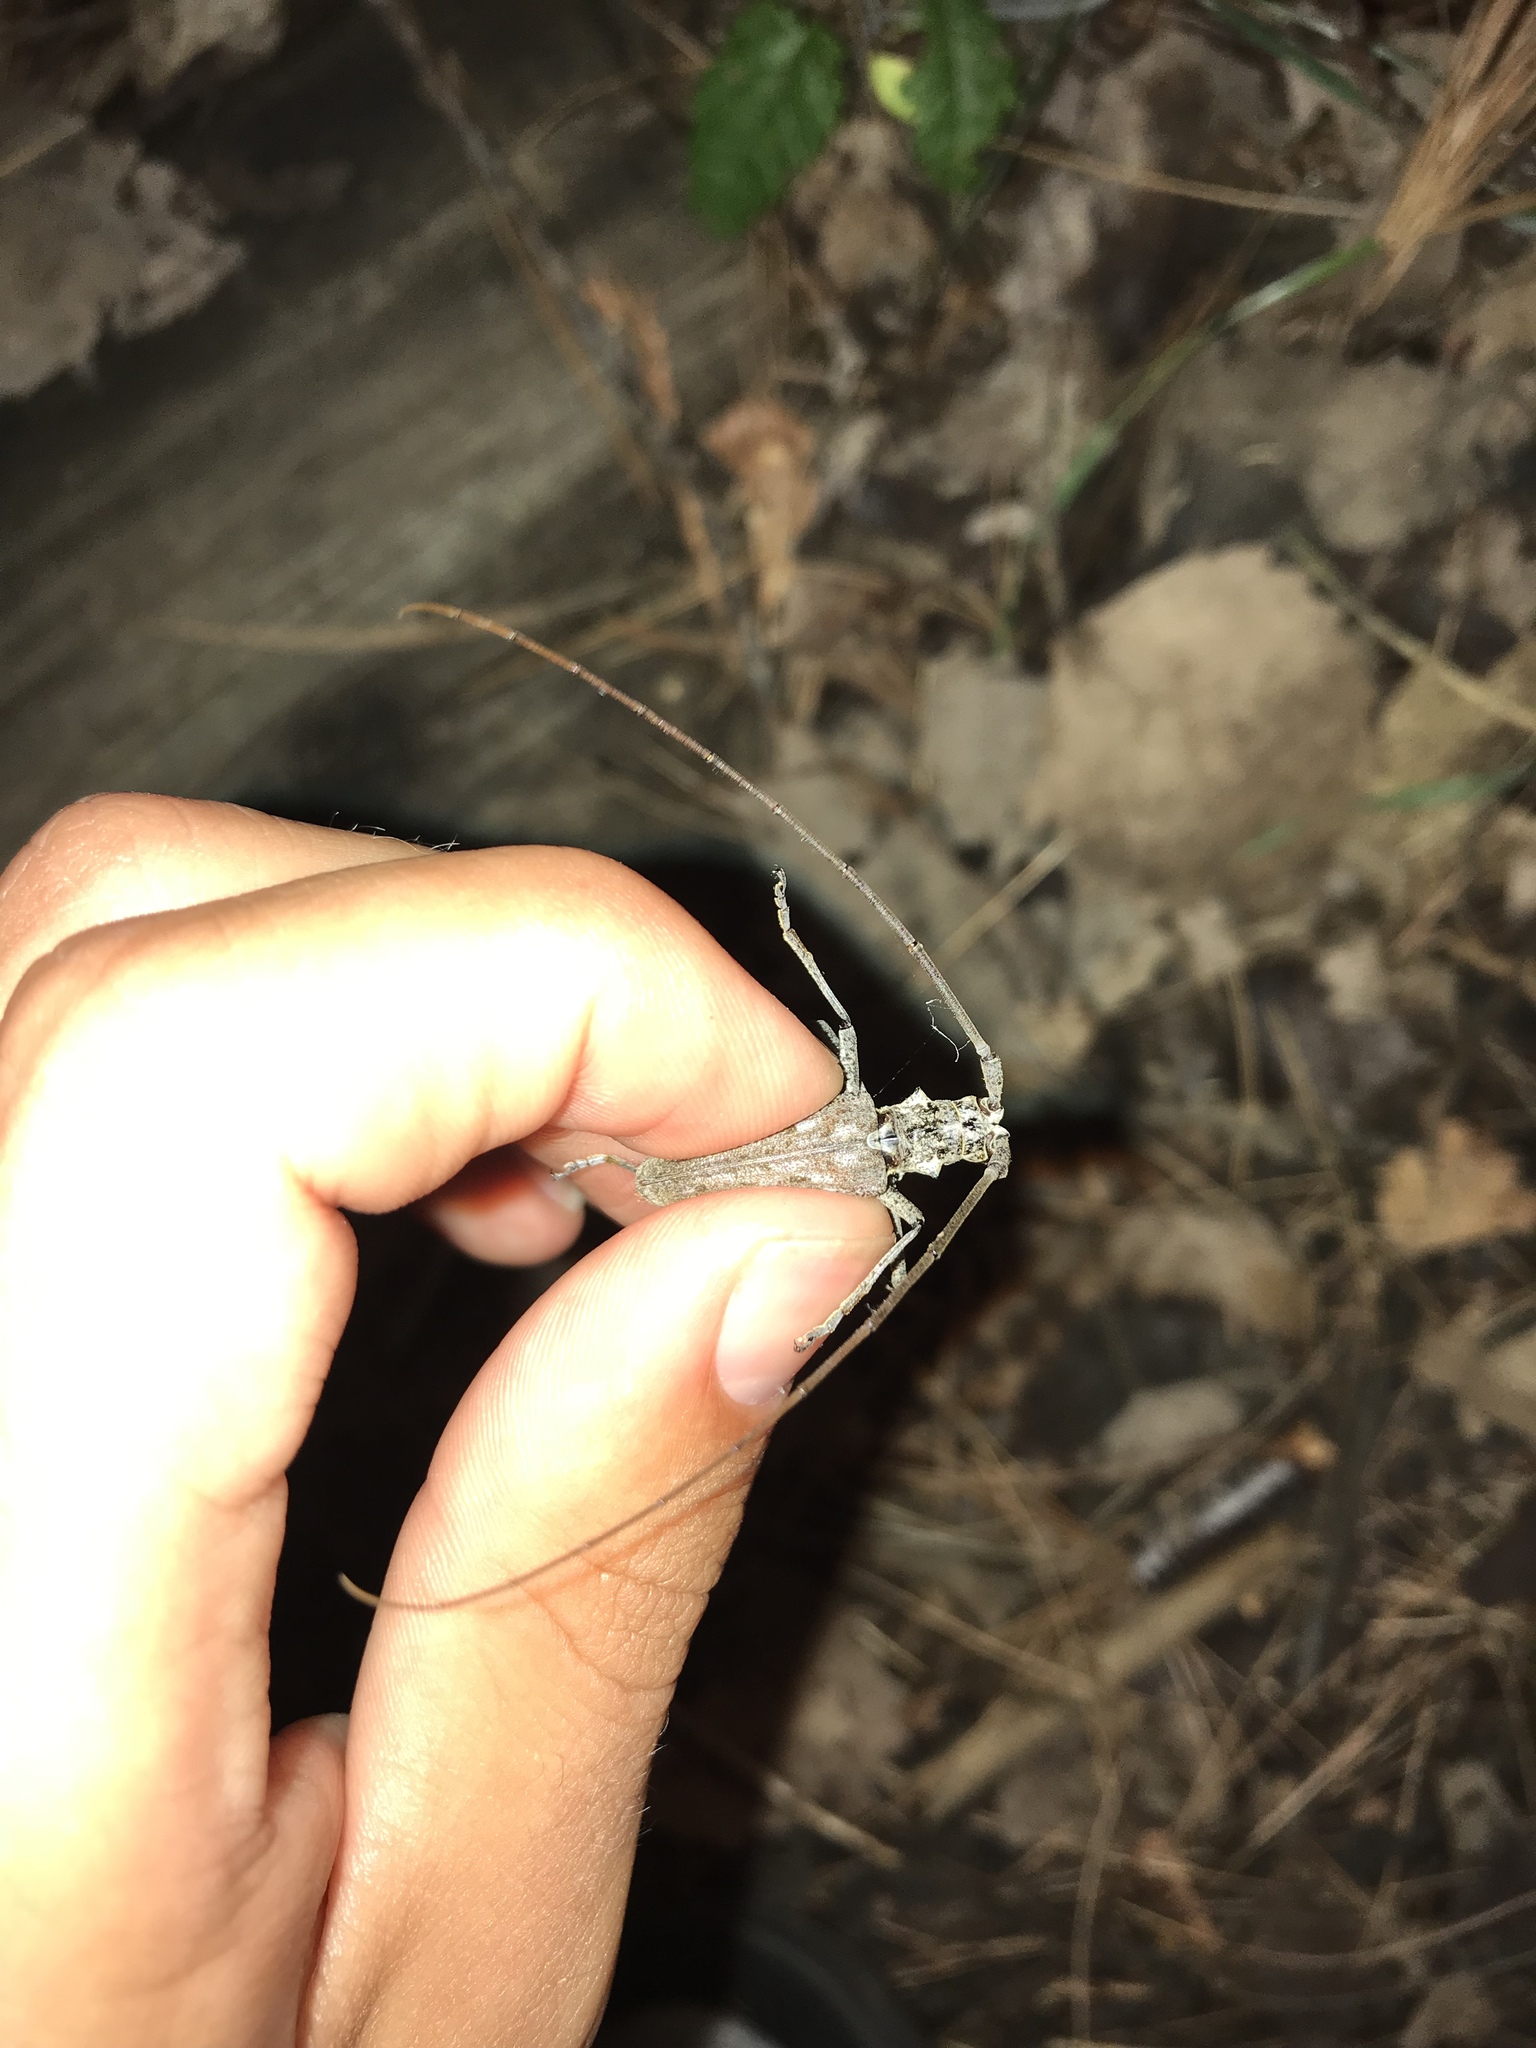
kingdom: Animalia
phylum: Arthropoda
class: Insecta
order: Coleoptera
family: Cerambycidae
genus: Monochamus
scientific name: Monochamus notatus
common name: Northeastern pine sawyer beetle
